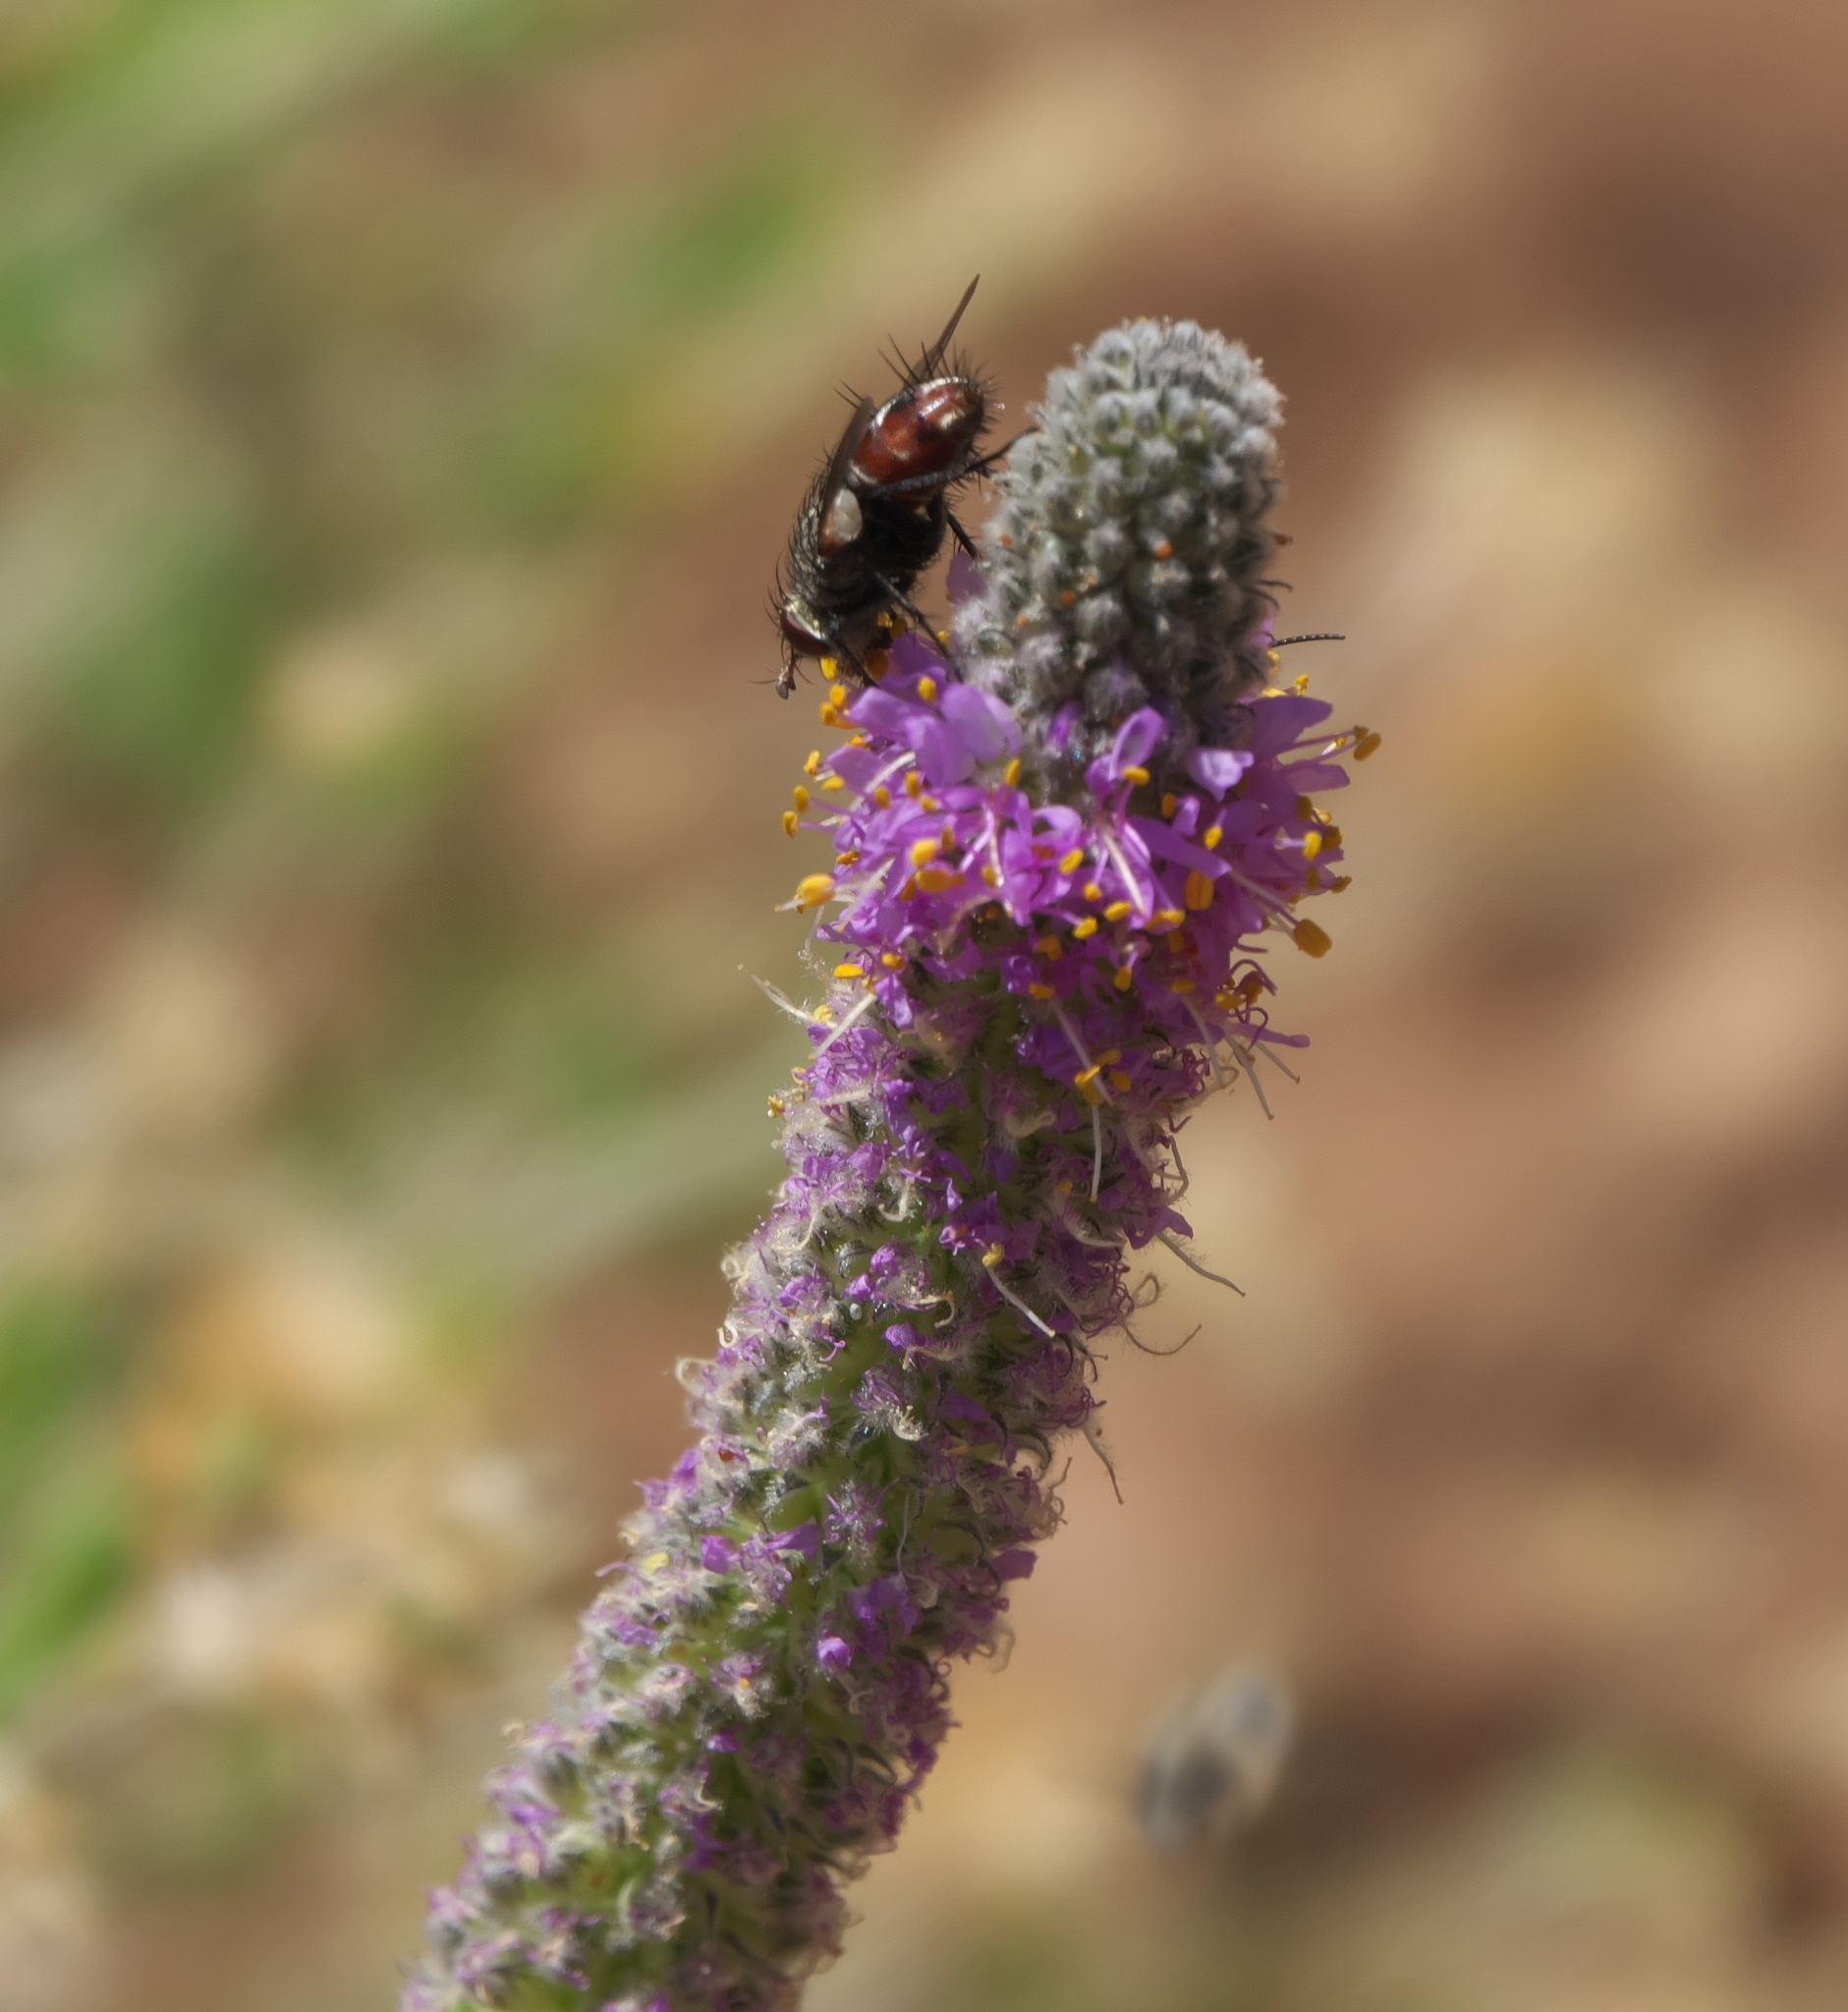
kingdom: Plantae
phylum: Tracheophyta
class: Magnoliopsida
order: Fabales
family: Fabaceae
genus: Dalea
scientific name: Dalea searlsiae
